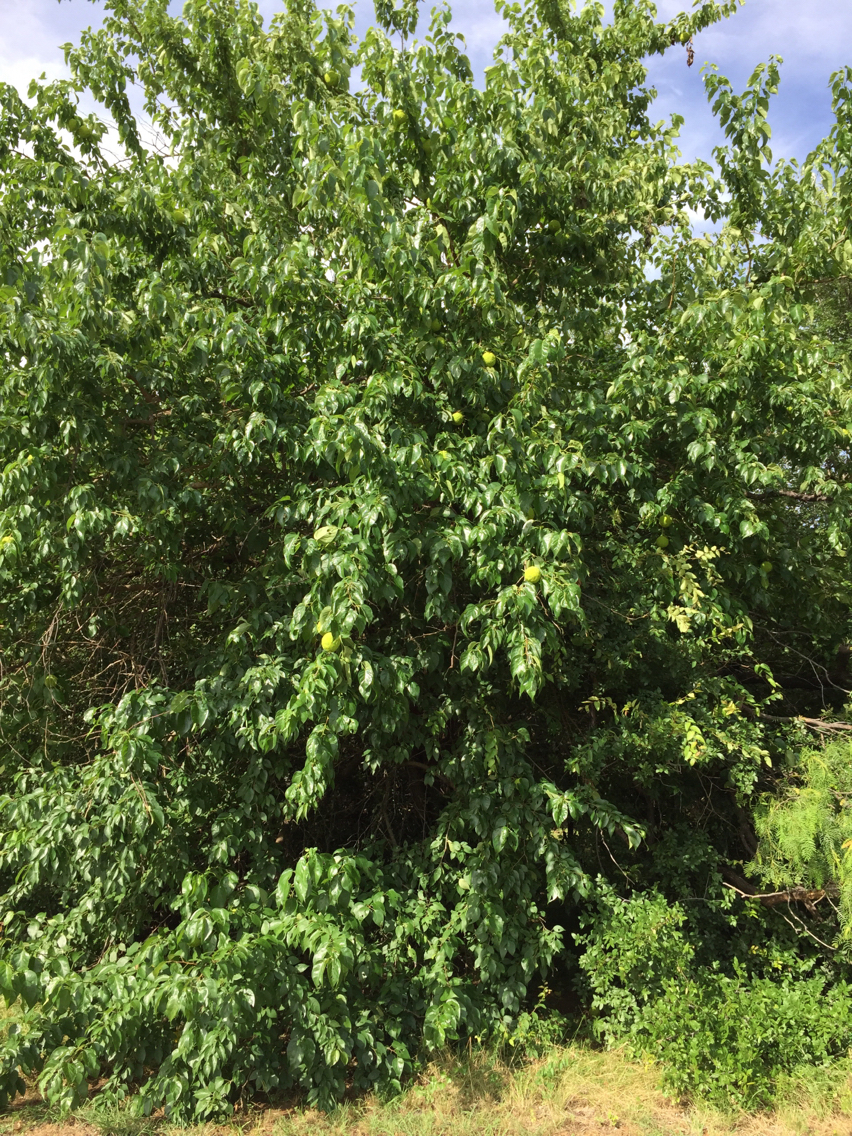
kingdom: Plantae
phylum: Tracheophyta
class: Magnoliopsida
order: Rosales
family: Moraceae
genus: Maclura
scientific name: Maclura pomifera
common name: Osage-orange
